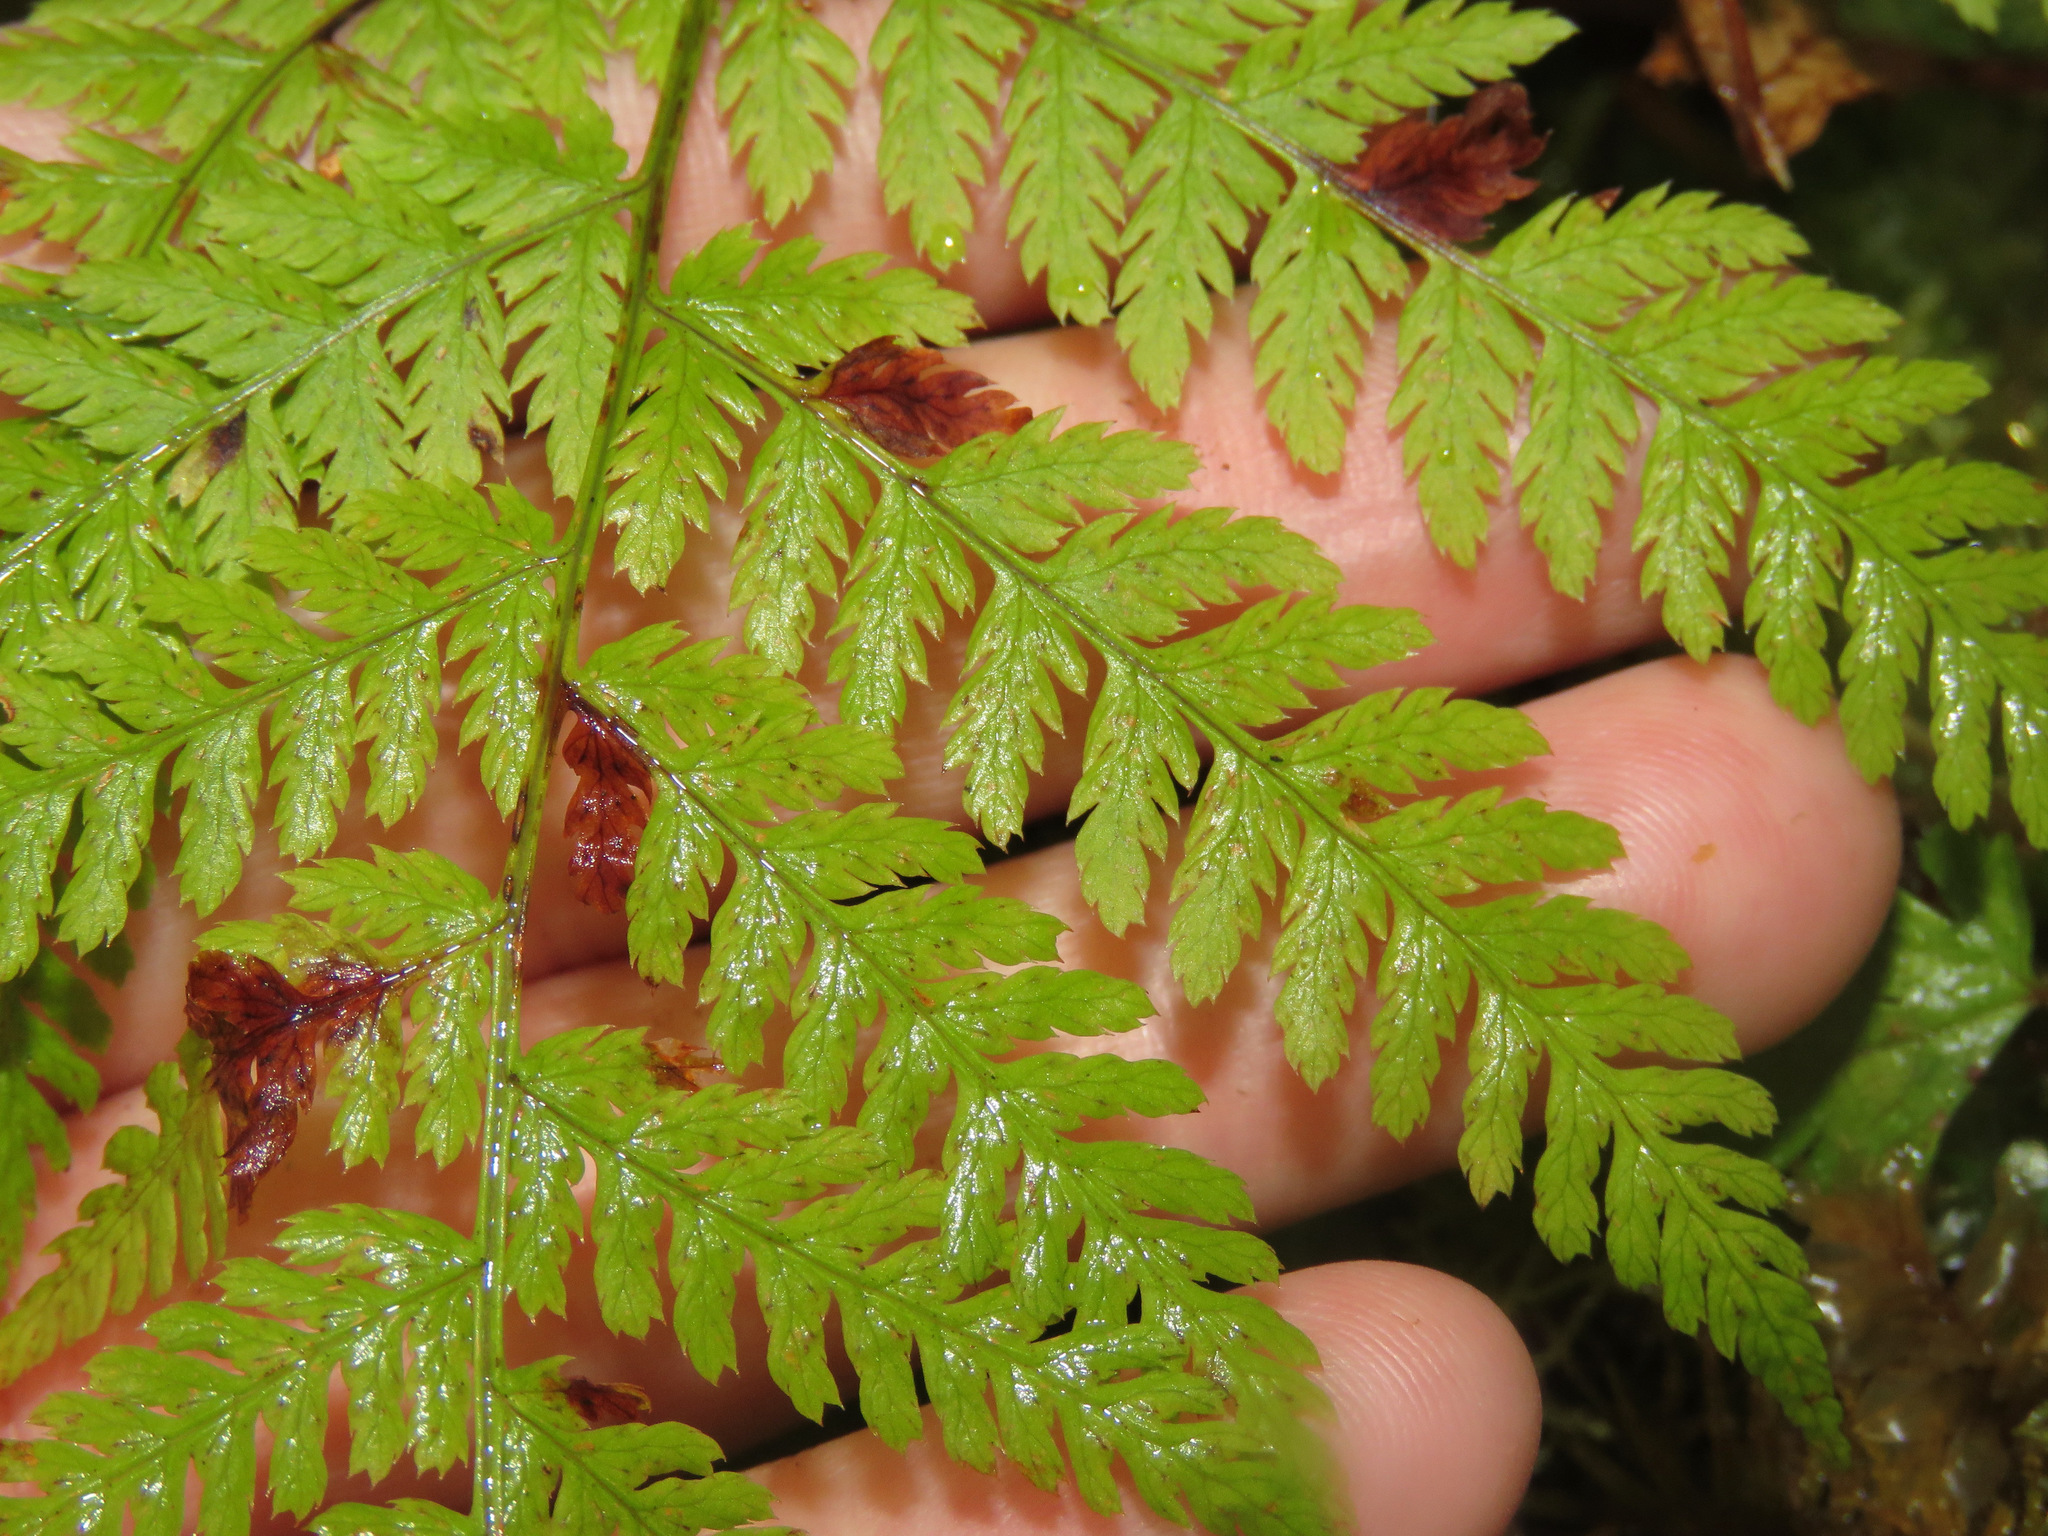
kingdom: Plantae
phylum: Tracheophyta
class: Polypodiopsida
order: Polypodiales
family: Dryopteridaceae
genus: Dryopteris
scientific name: Dryopteris expansa
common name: Northern buckler fern
